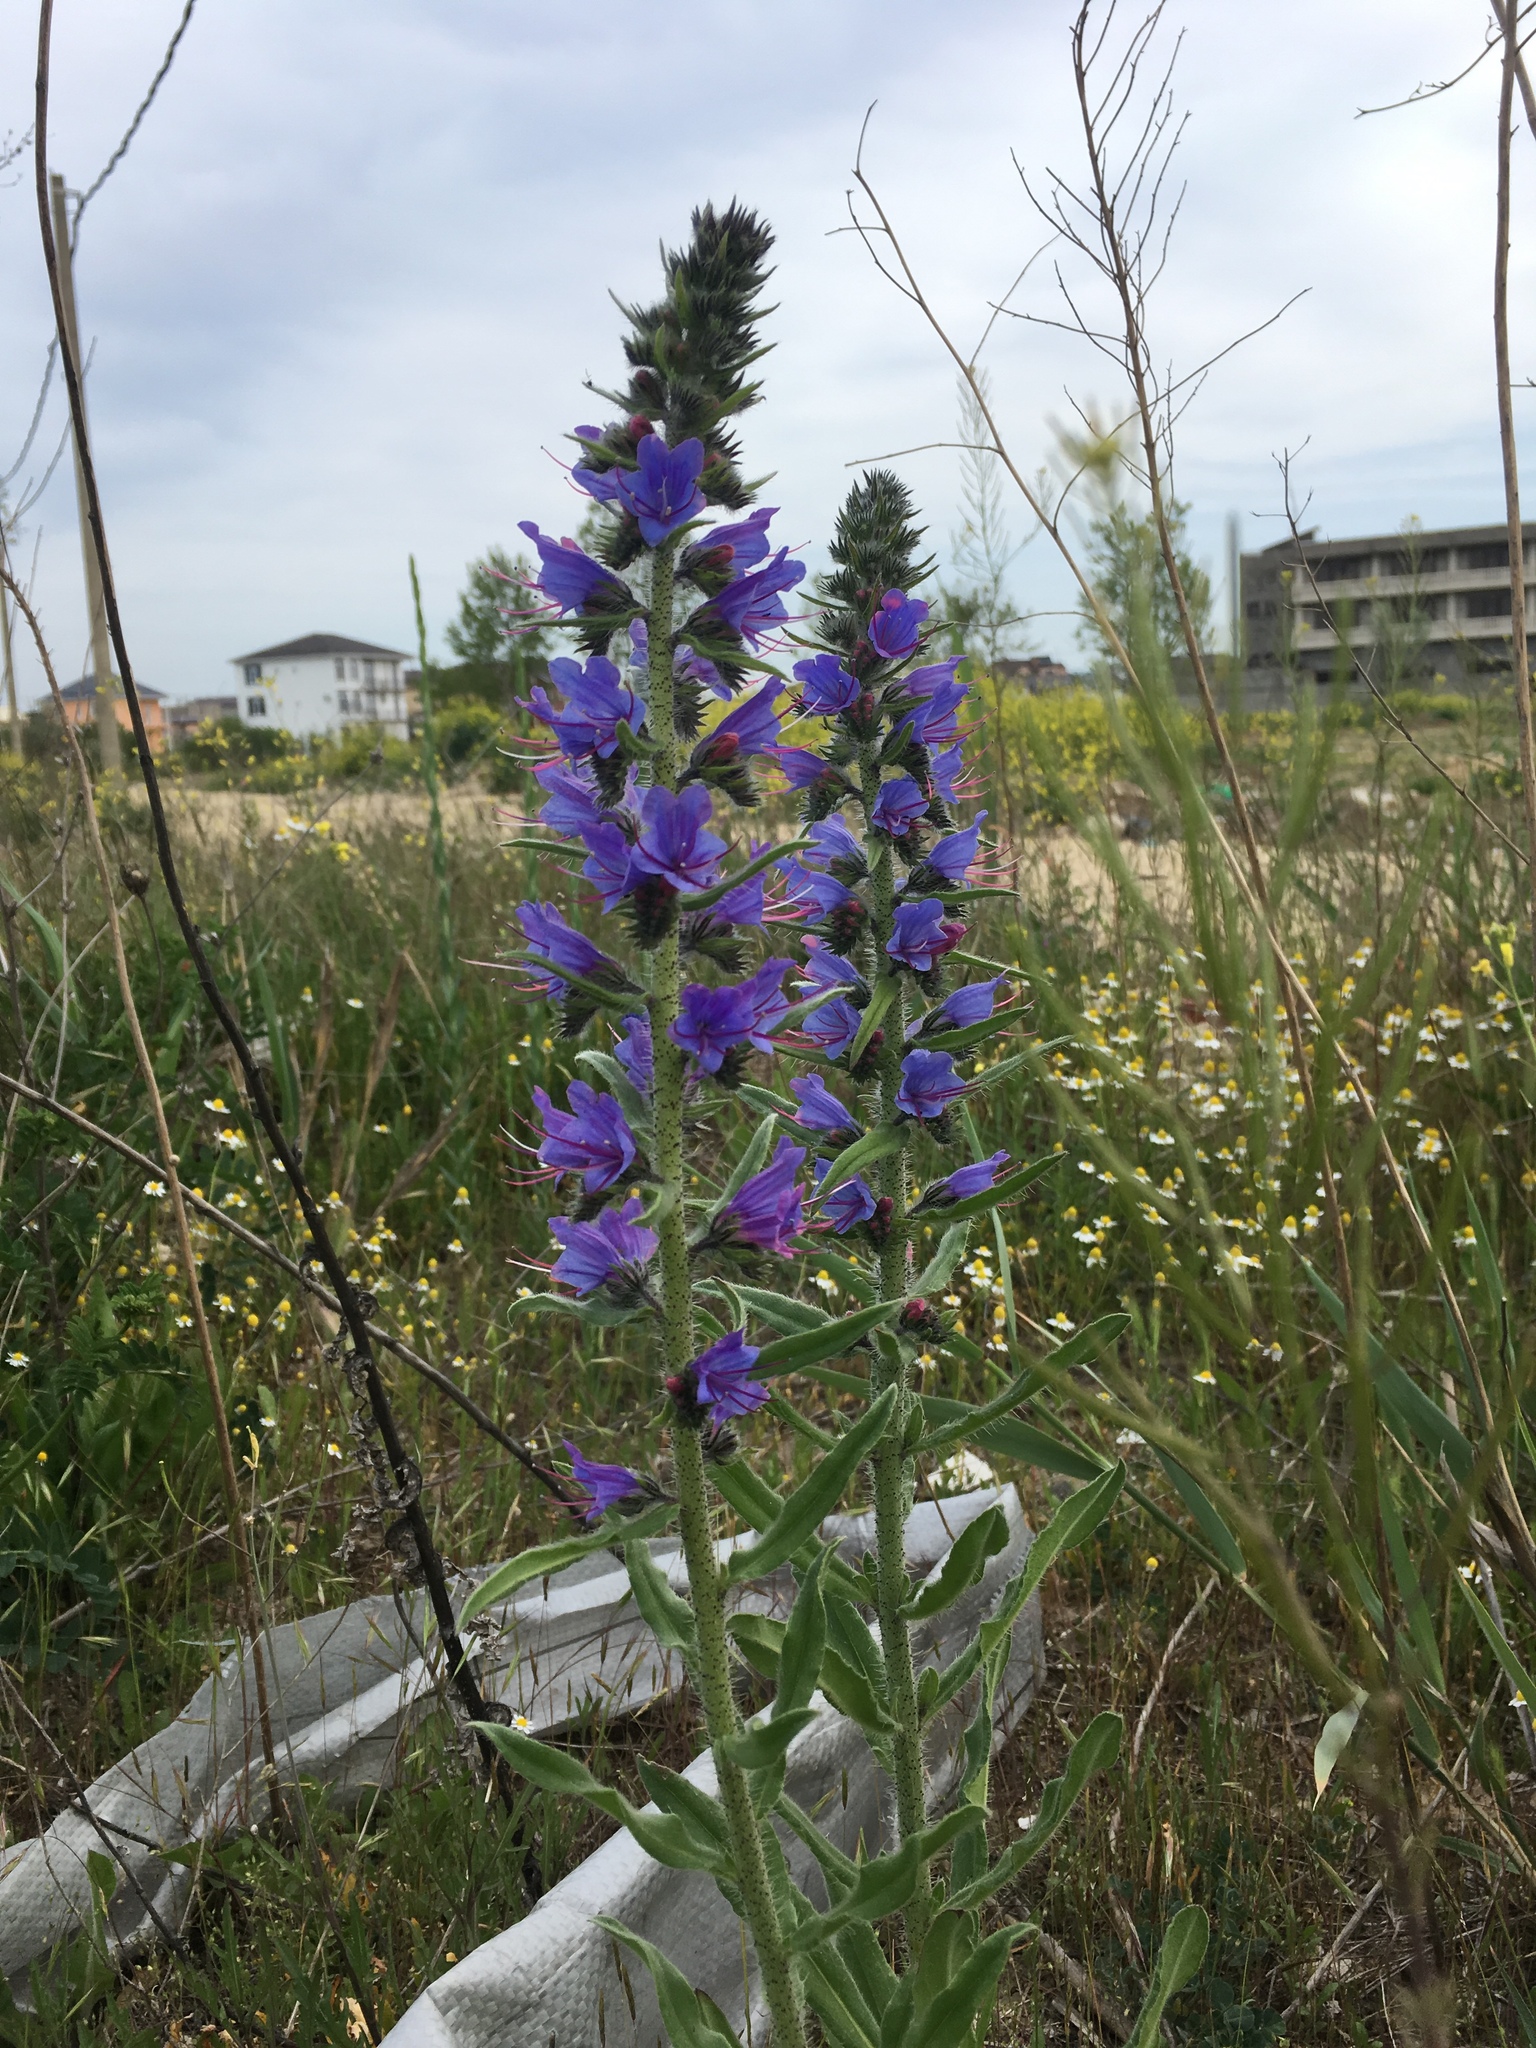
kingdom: Plantae
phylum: Tracheophyta
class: Magnoliopsida
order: Boraginales
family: Boraginaceae
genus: Echium
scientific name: Echium vulgare
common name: Common viper's bugloss
